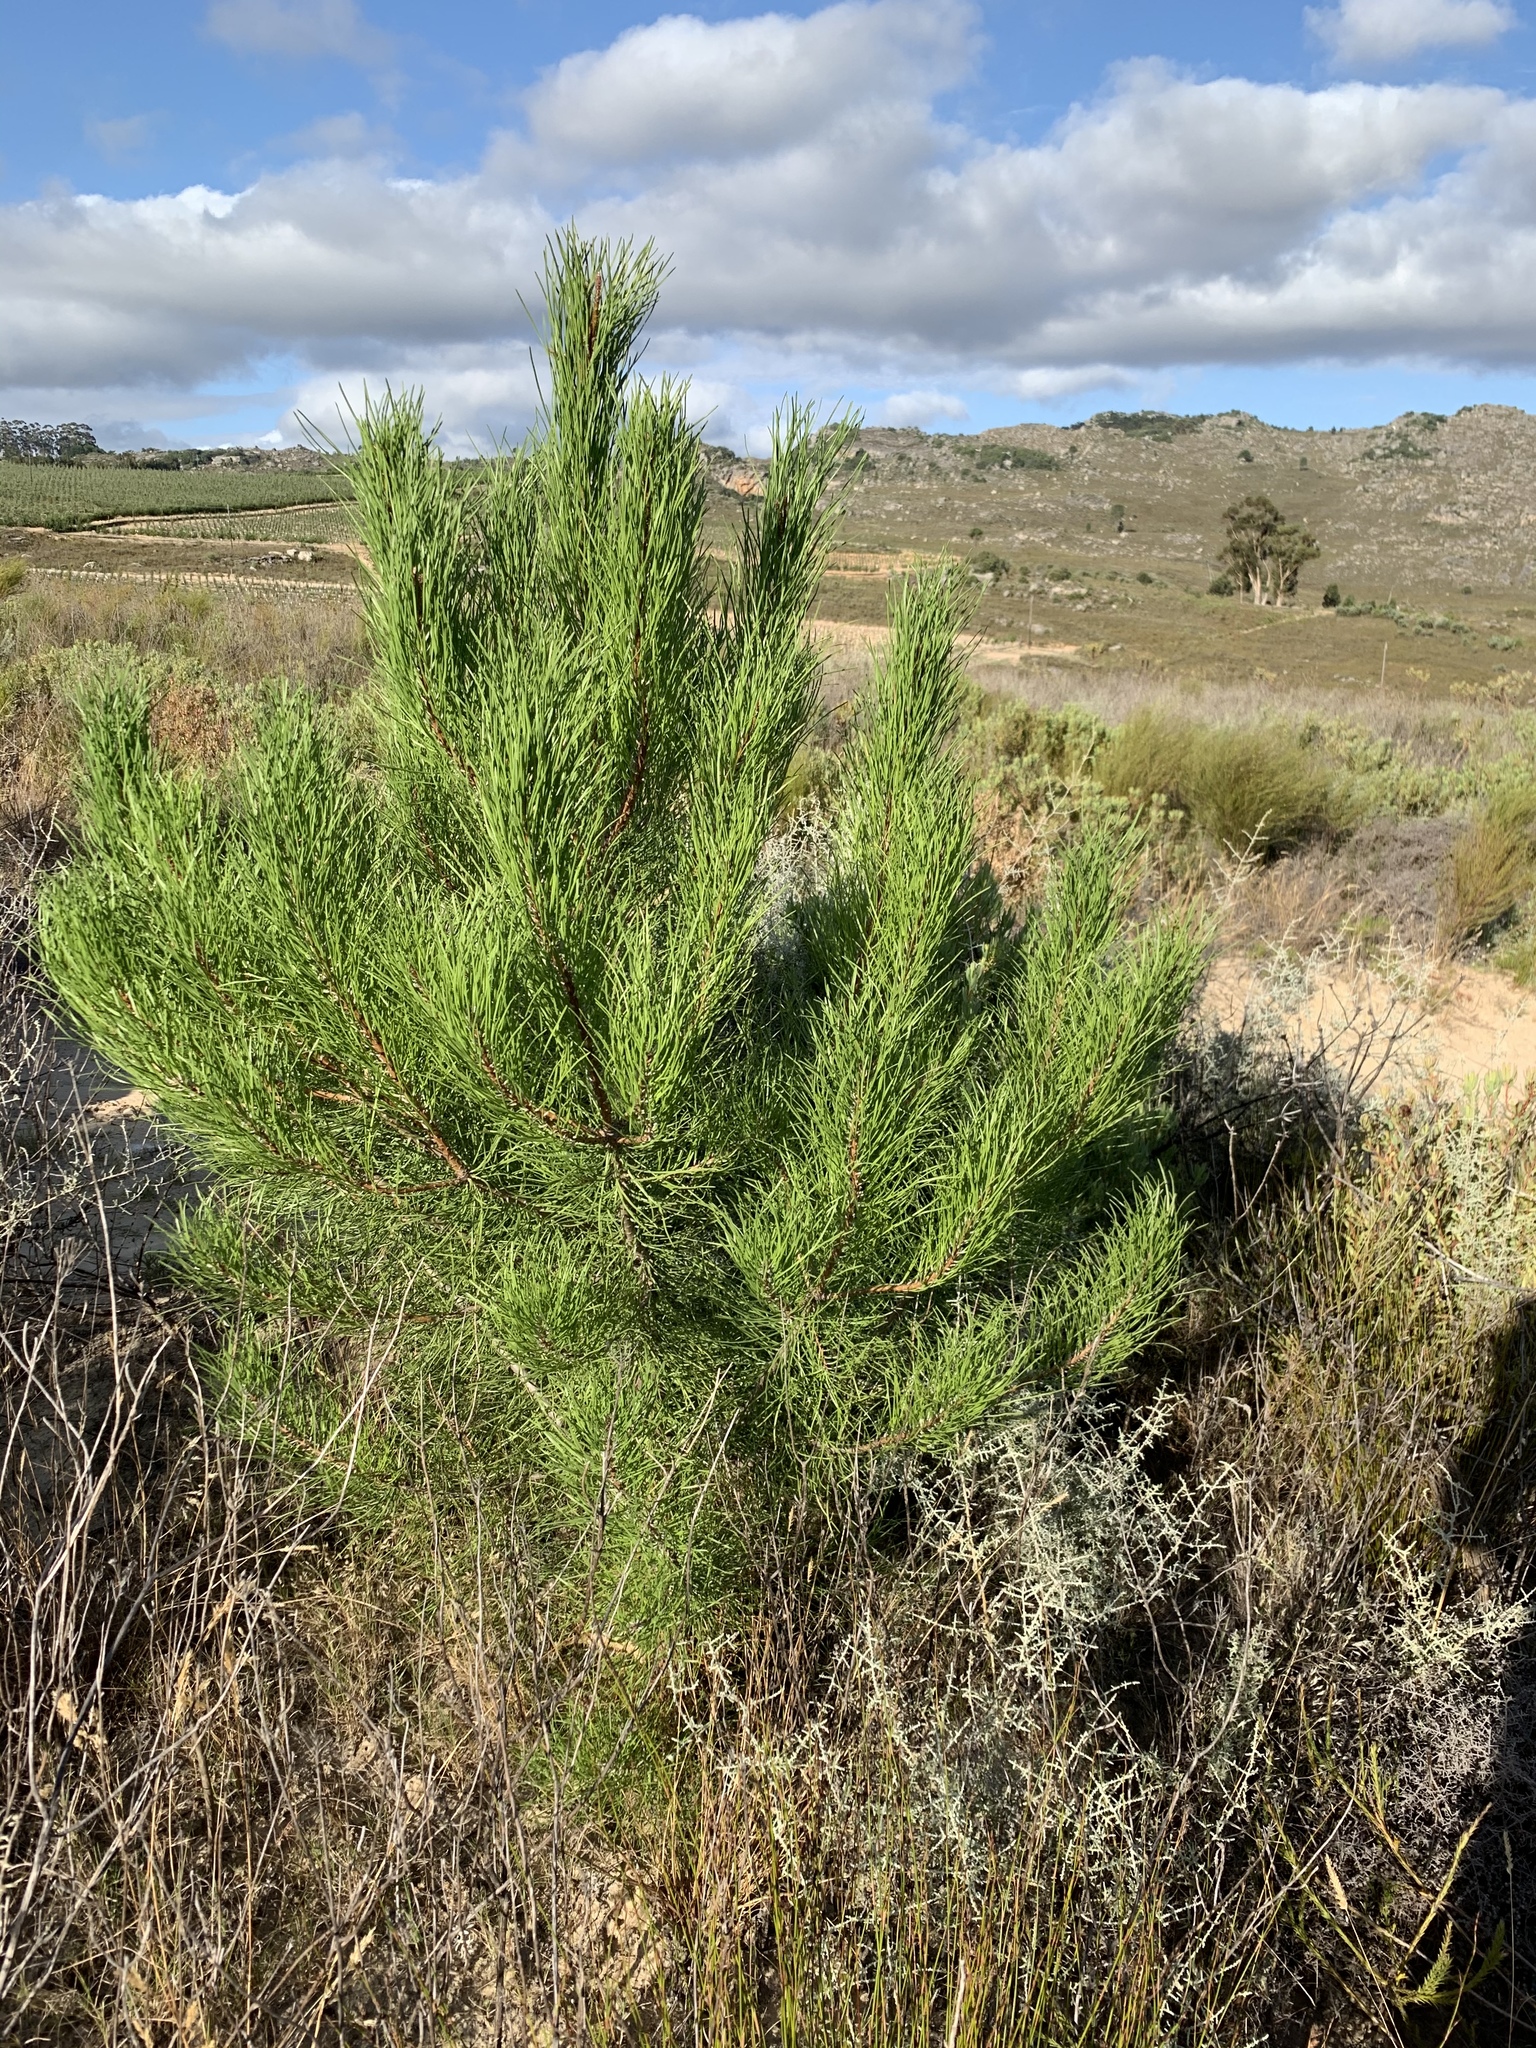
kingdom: Plantae
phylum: Tracheophyta
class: Pinopsida
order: Pinales
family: Pinaceae
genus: Pinus
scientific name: Pinus pinaster
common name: Maritime pine
